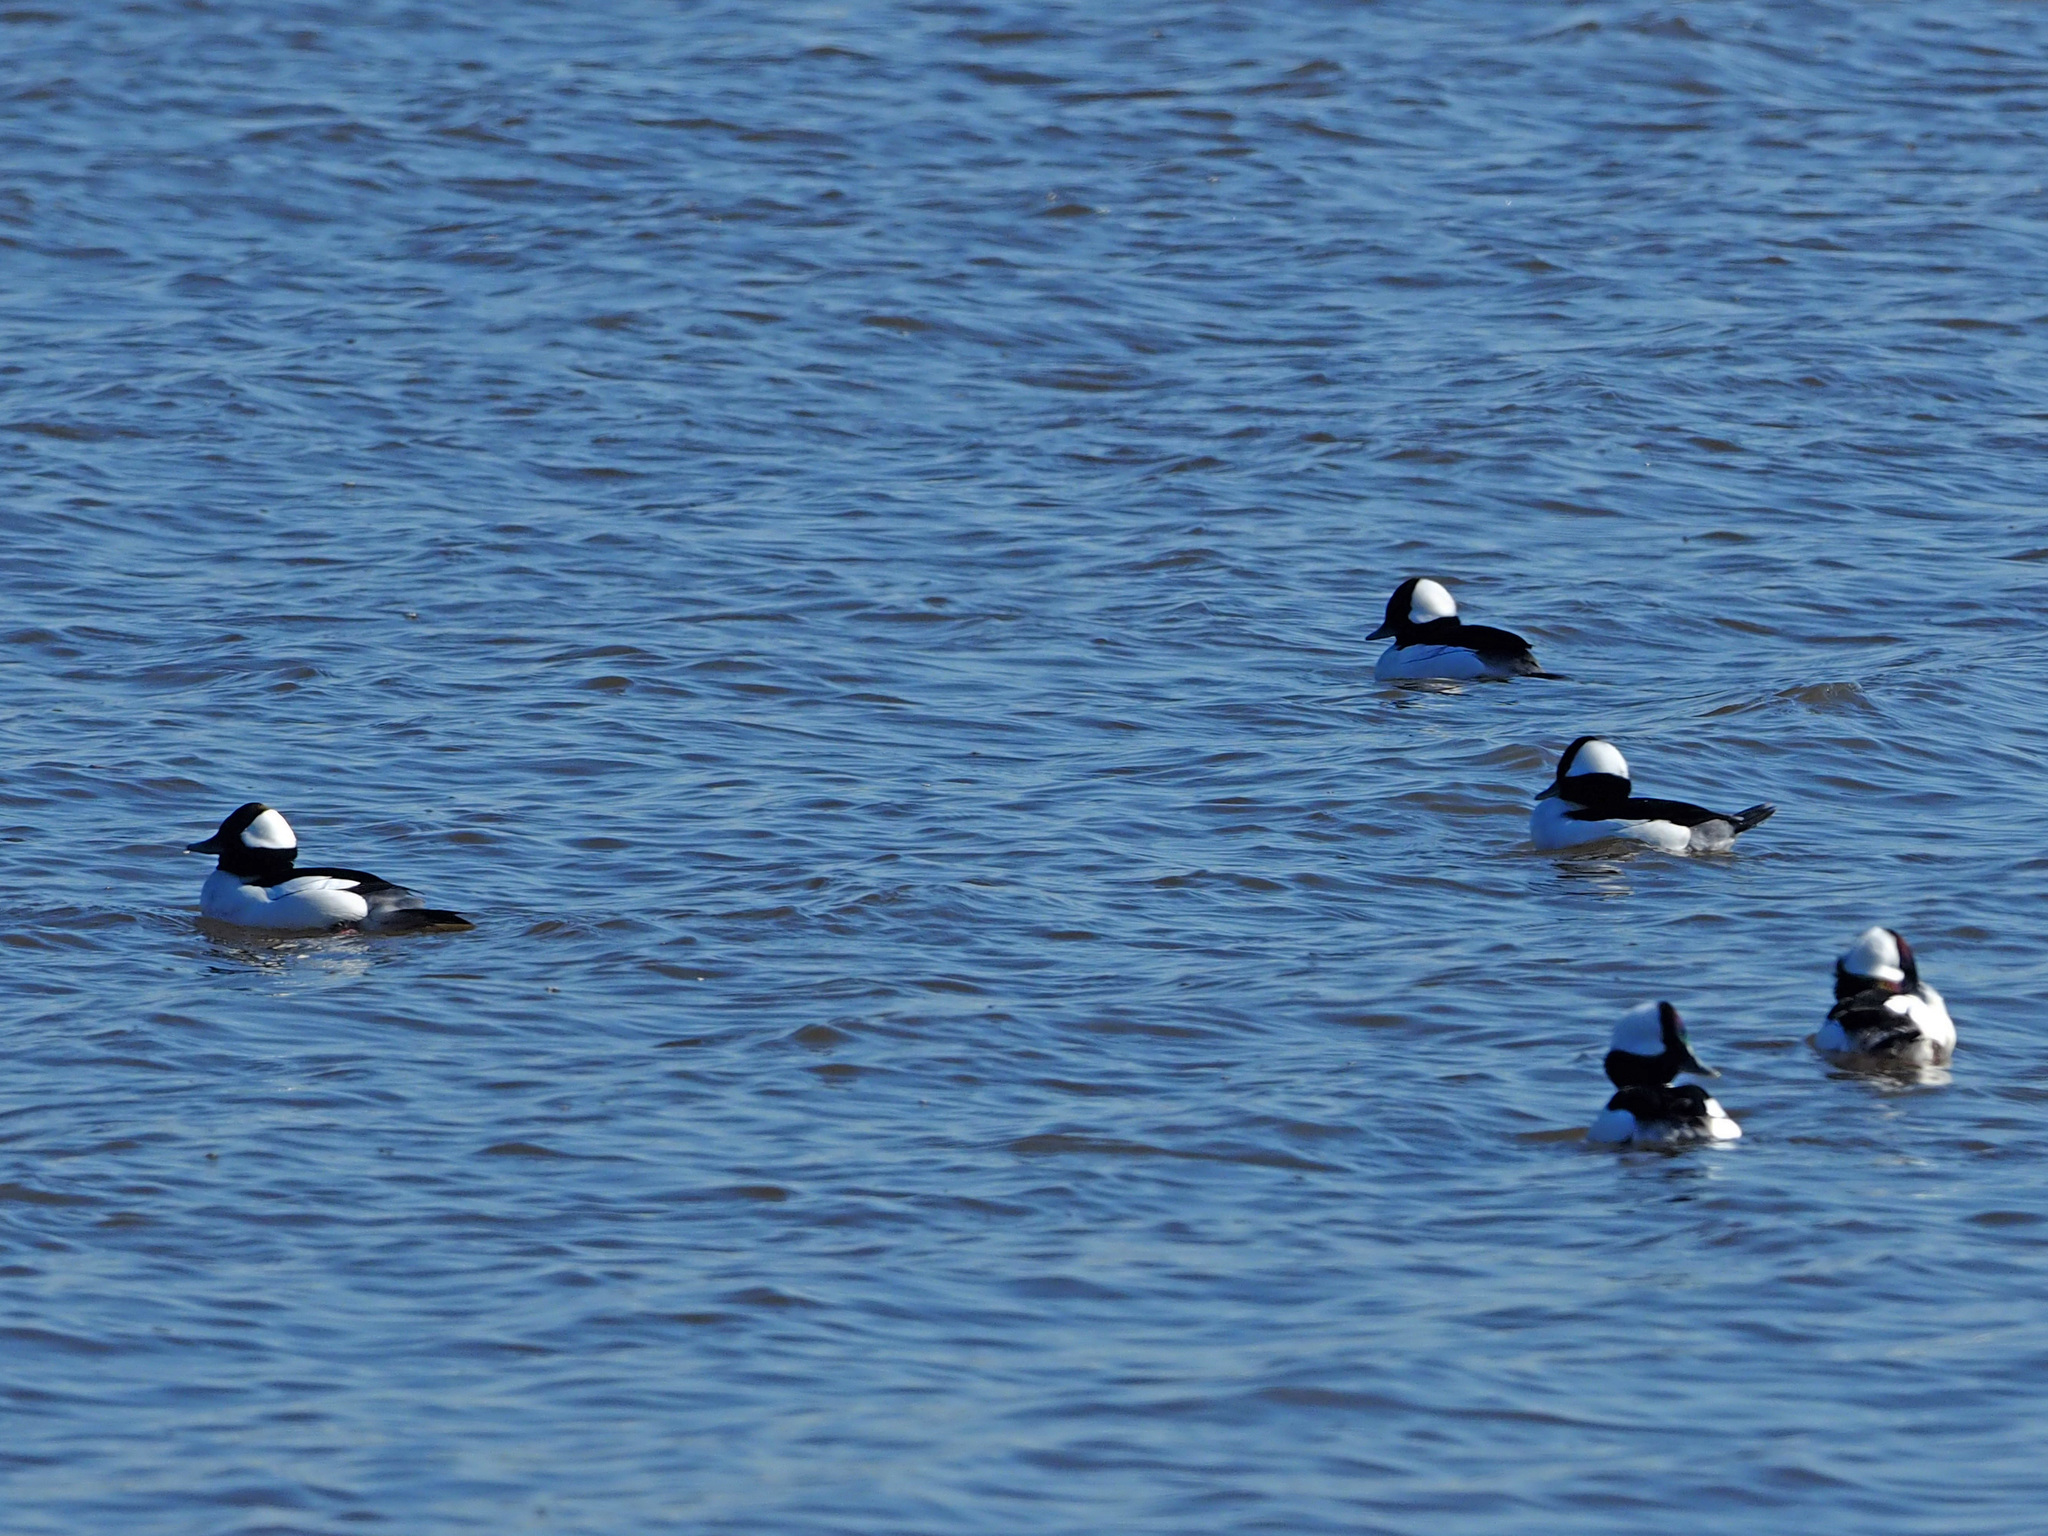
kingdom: Animalia
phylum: Chordata
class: Aves
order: Anseriformes
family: Anatidae
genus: Bucephala
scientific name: Bucephala albeola
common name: Bufflehead
